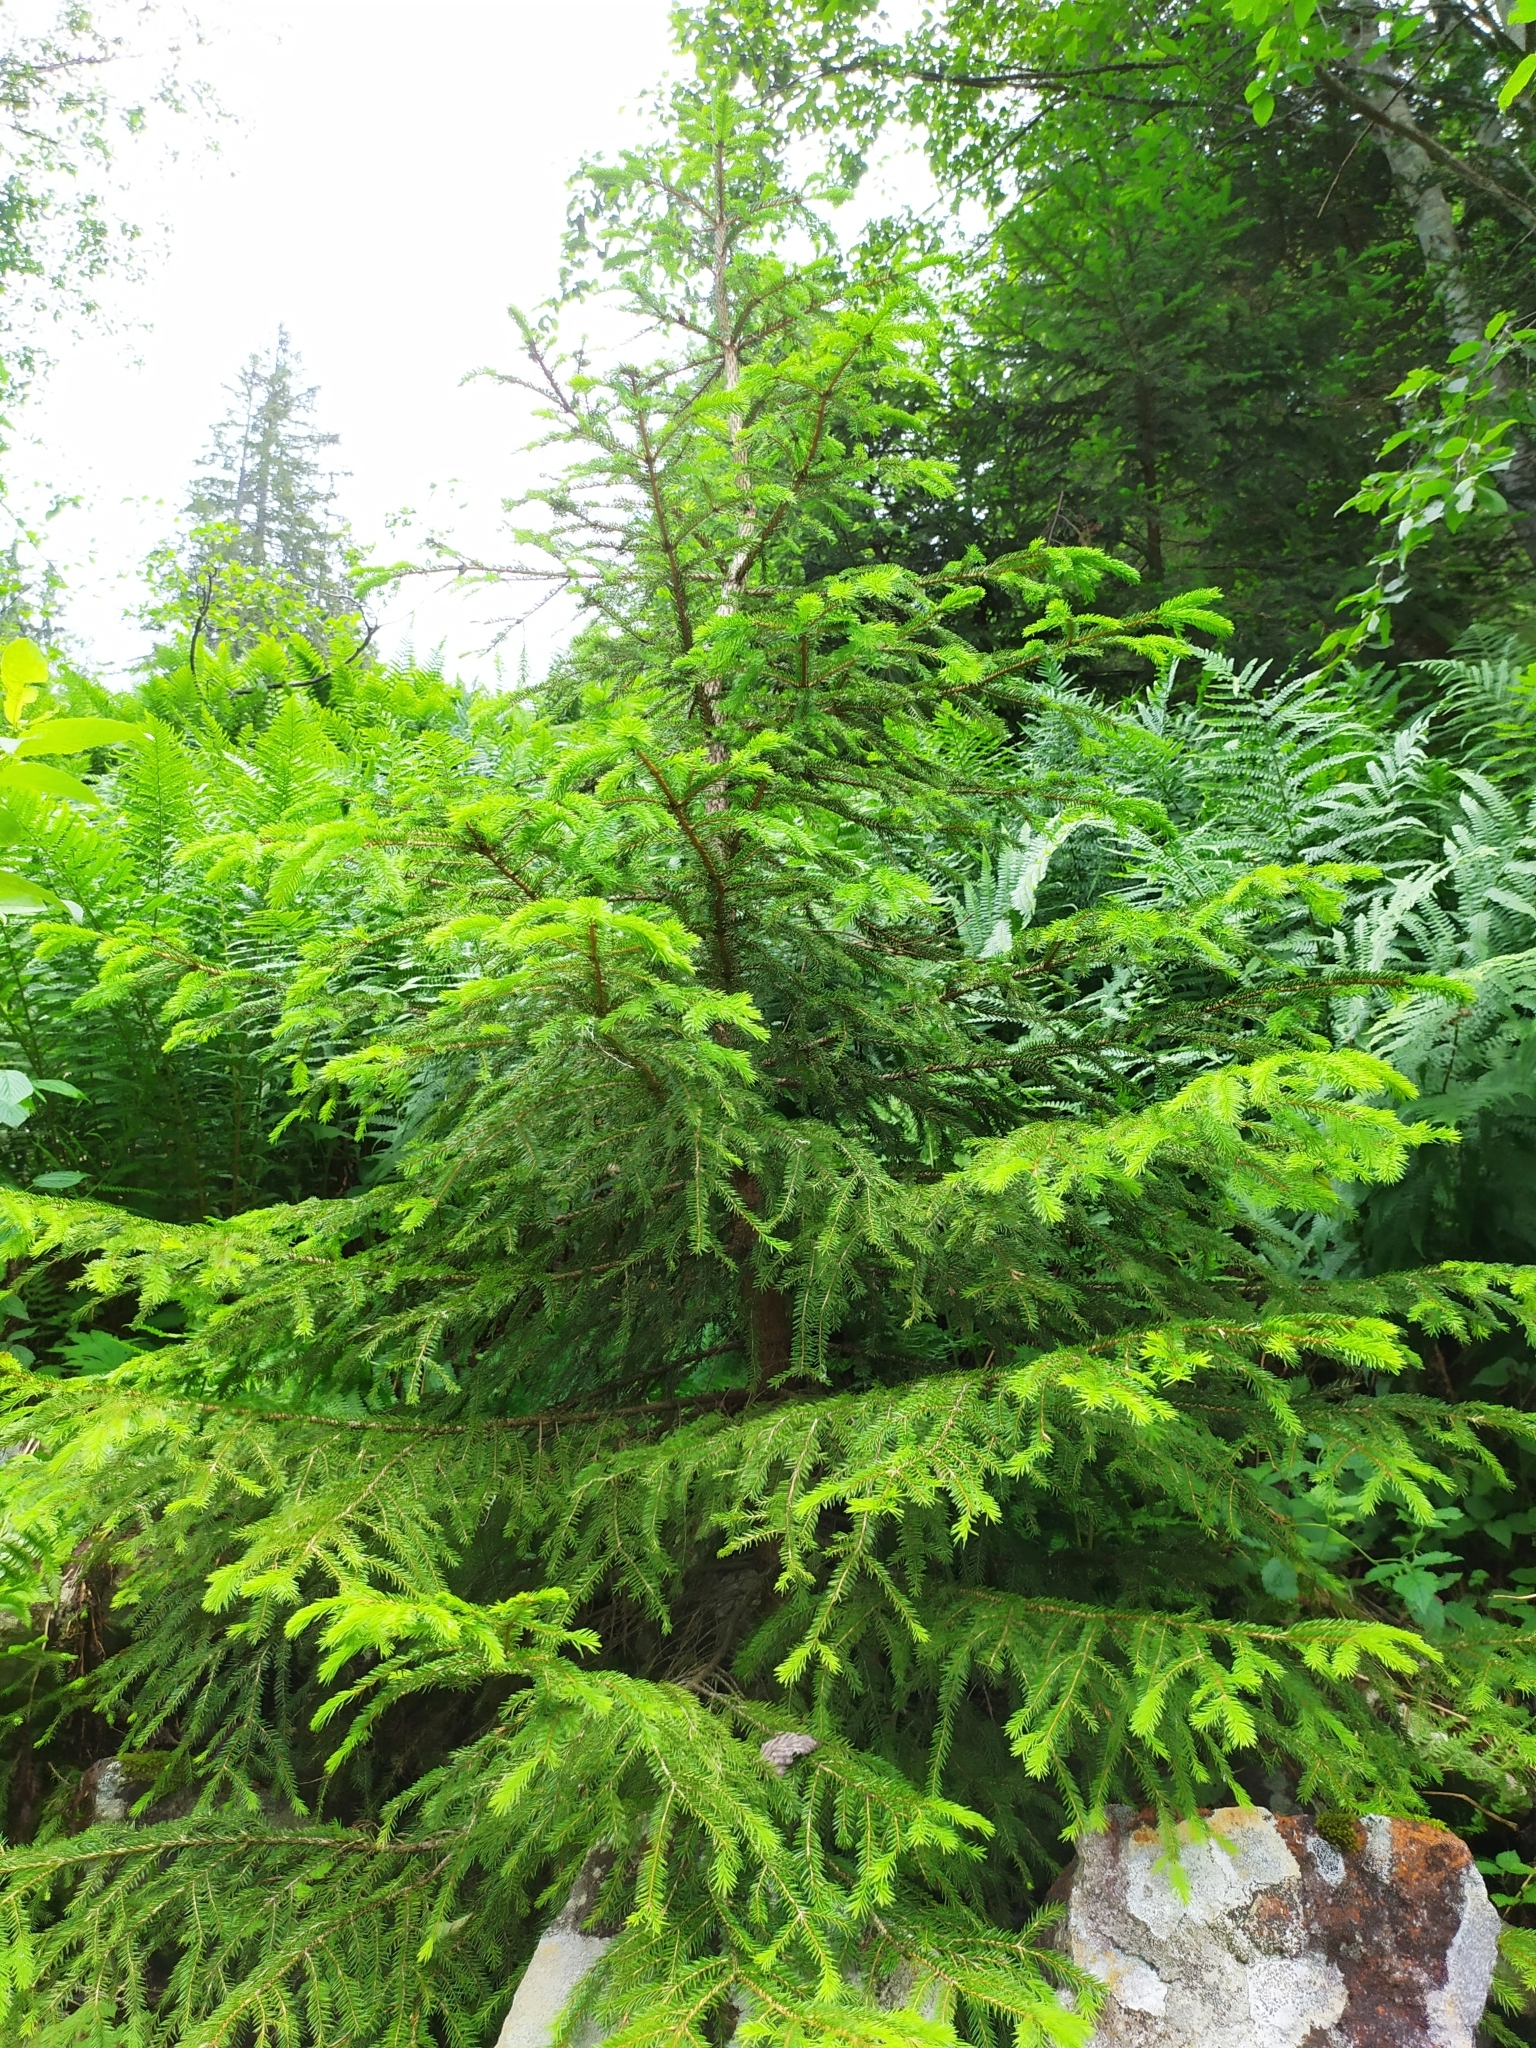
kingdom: Plantae
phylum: Tracheophyta
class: Pinopsida
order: Pinales
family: Pinaceae
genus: Picea
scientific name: Picea abies
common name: Norway spruce
